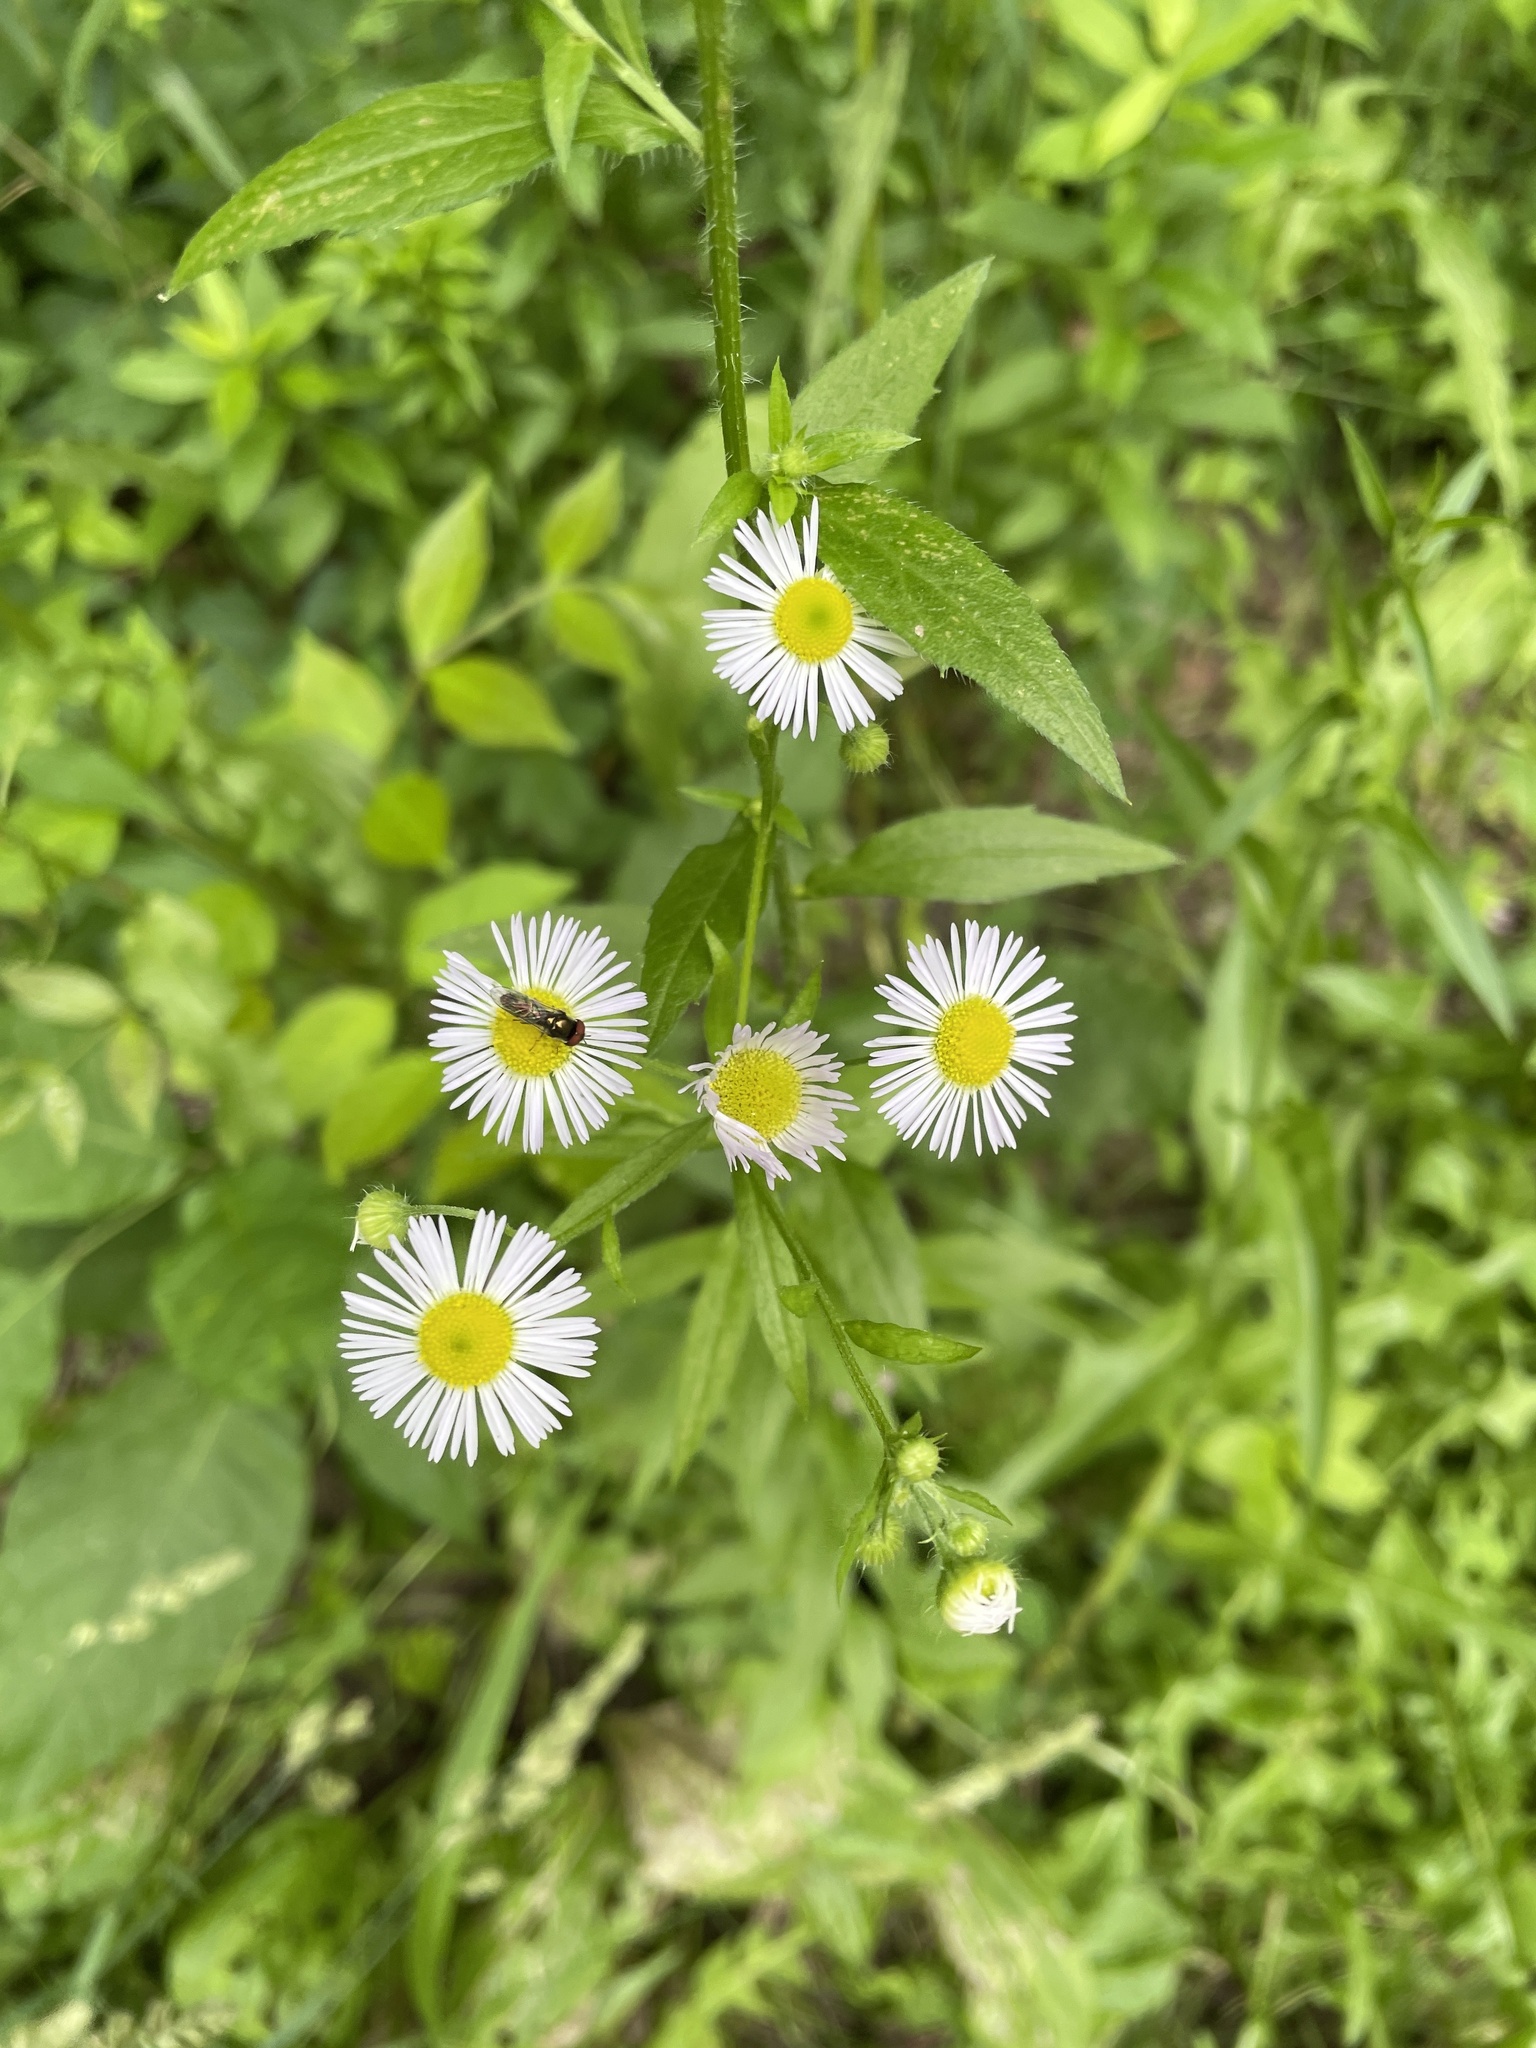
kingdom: Plantae
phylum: Tracheophyta
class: Magnoliopsida
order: Asterales
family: Asteraceae
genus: Erigeron
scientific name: Erigeron annuus
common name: Tall fleabane
